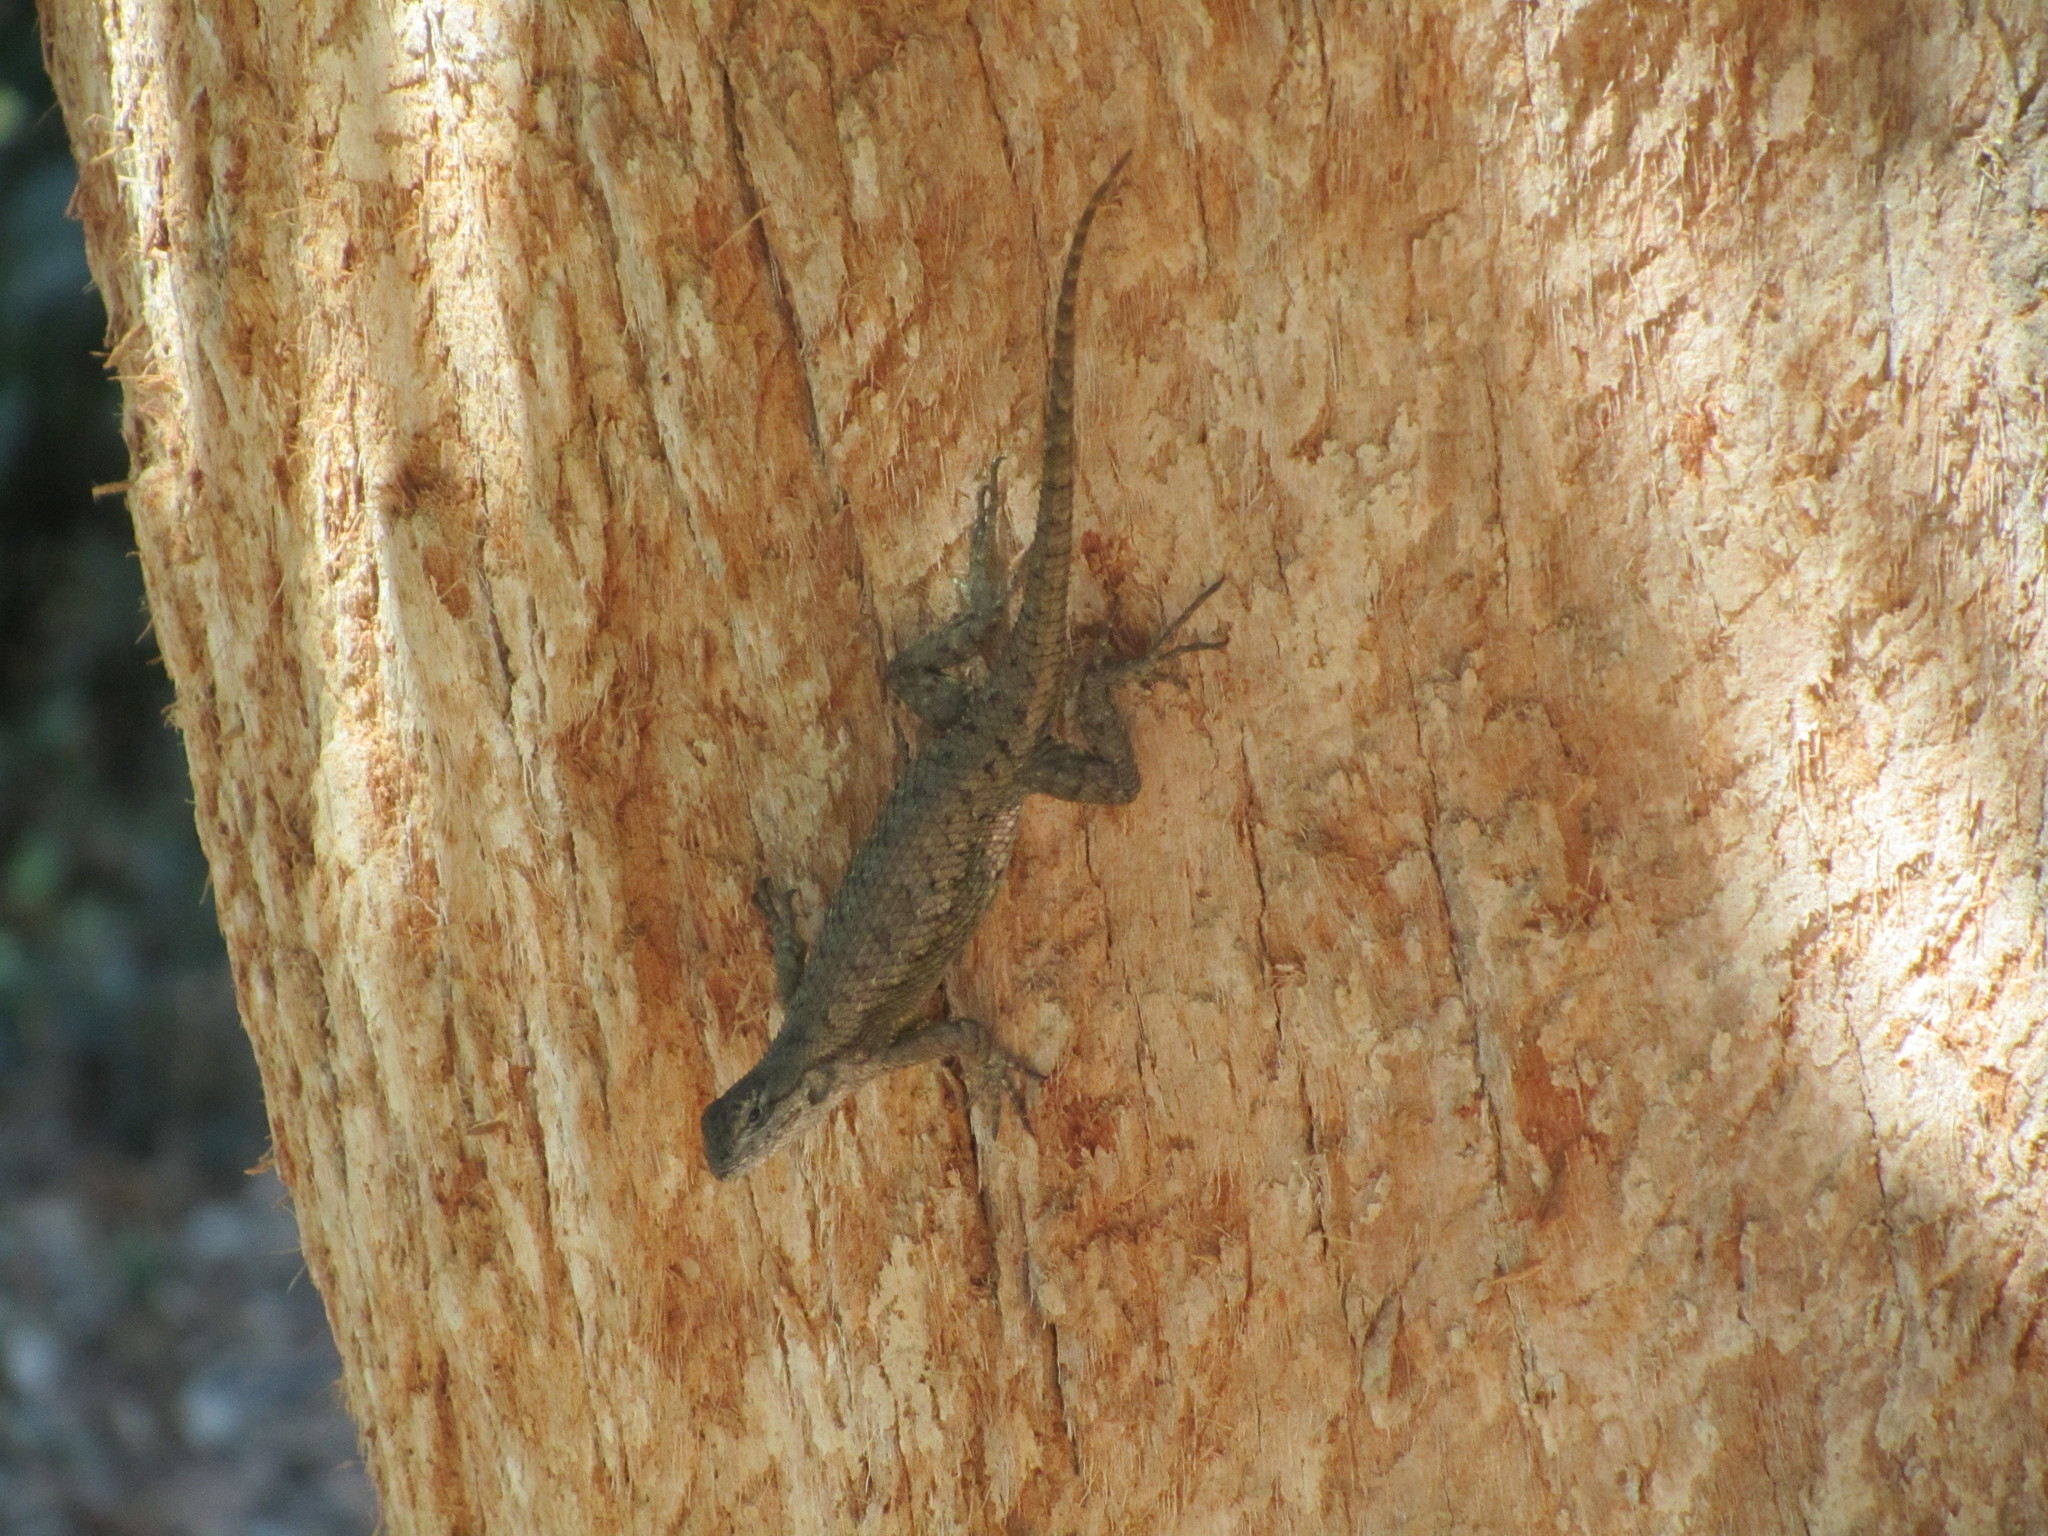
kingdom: Animalia
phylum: Chordata
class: Squamata
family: Phrynosomatidae
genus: Sceloporus
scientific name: Sceloporus occidentalis
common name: Western fence lizard
